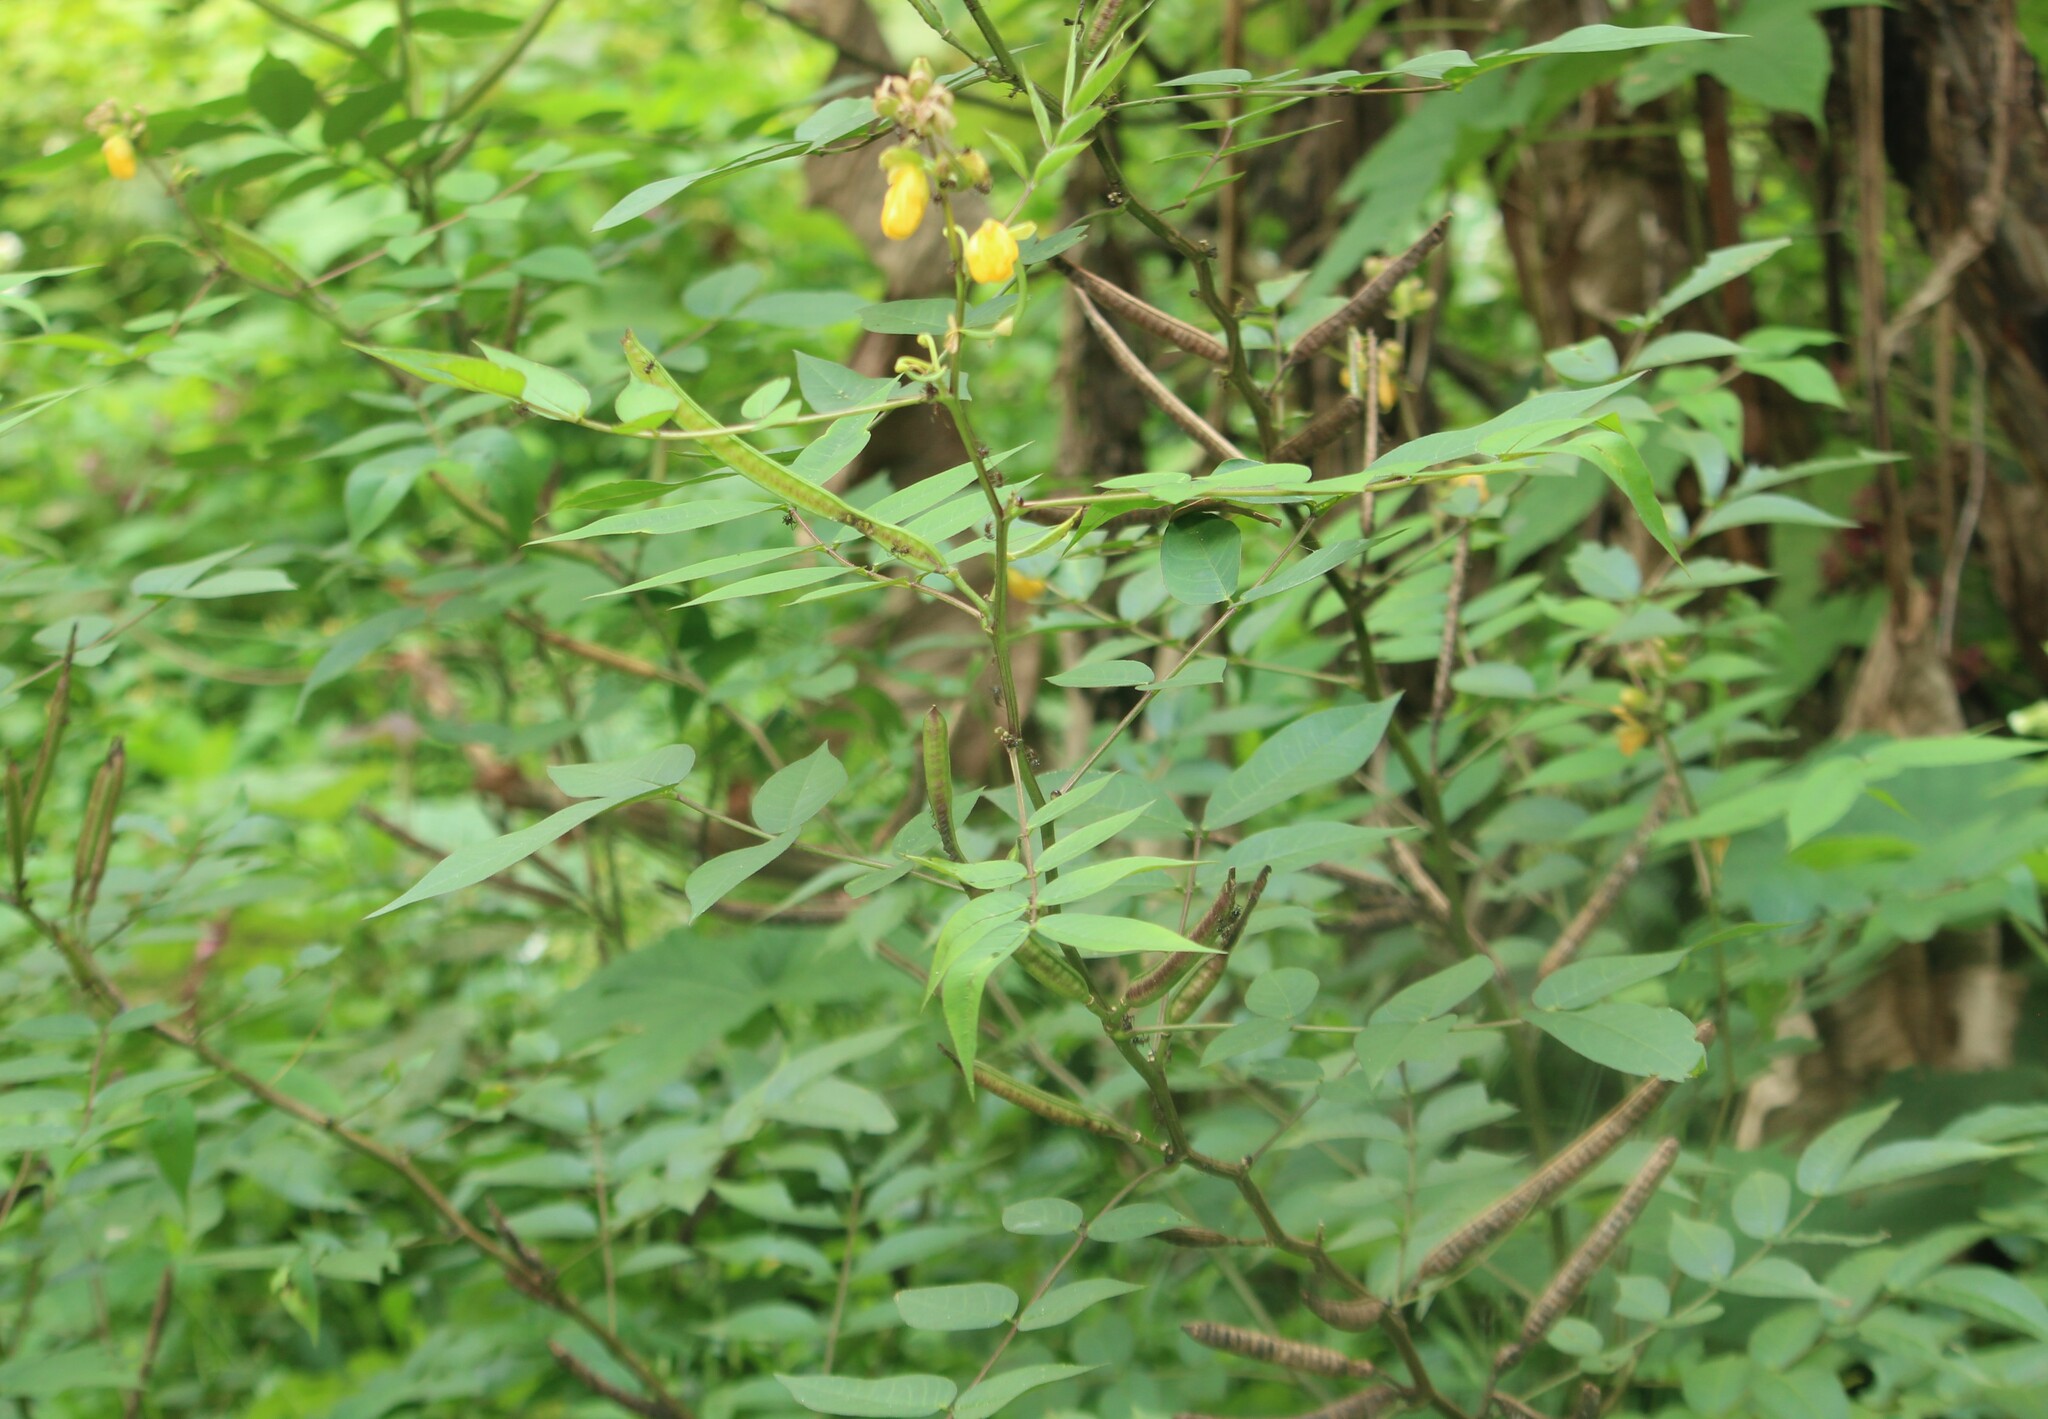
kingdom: Plantae
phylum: Tracheophyta
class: Magnoliopsida
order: Fabales
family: Fabaceae
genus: Senna
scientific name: Senna occidentalis
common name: Septicweed
